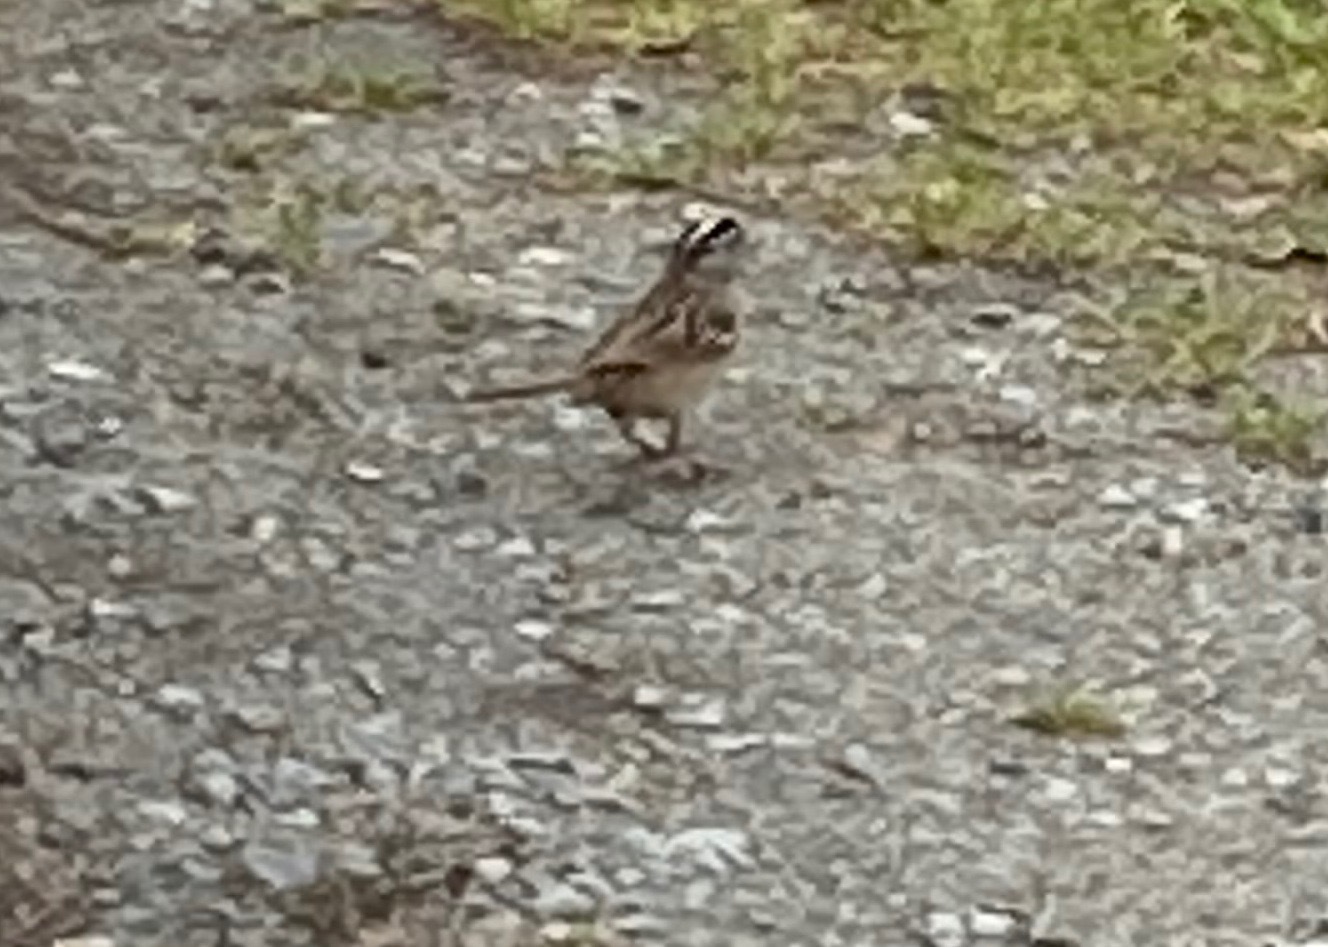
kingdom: Animalia
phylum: Chordata
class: Aves
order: Passeriformes
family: Passerellidae
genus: Zonotrichia
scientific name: Zonotrichia leucophrys
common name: White-crowned sparrow
